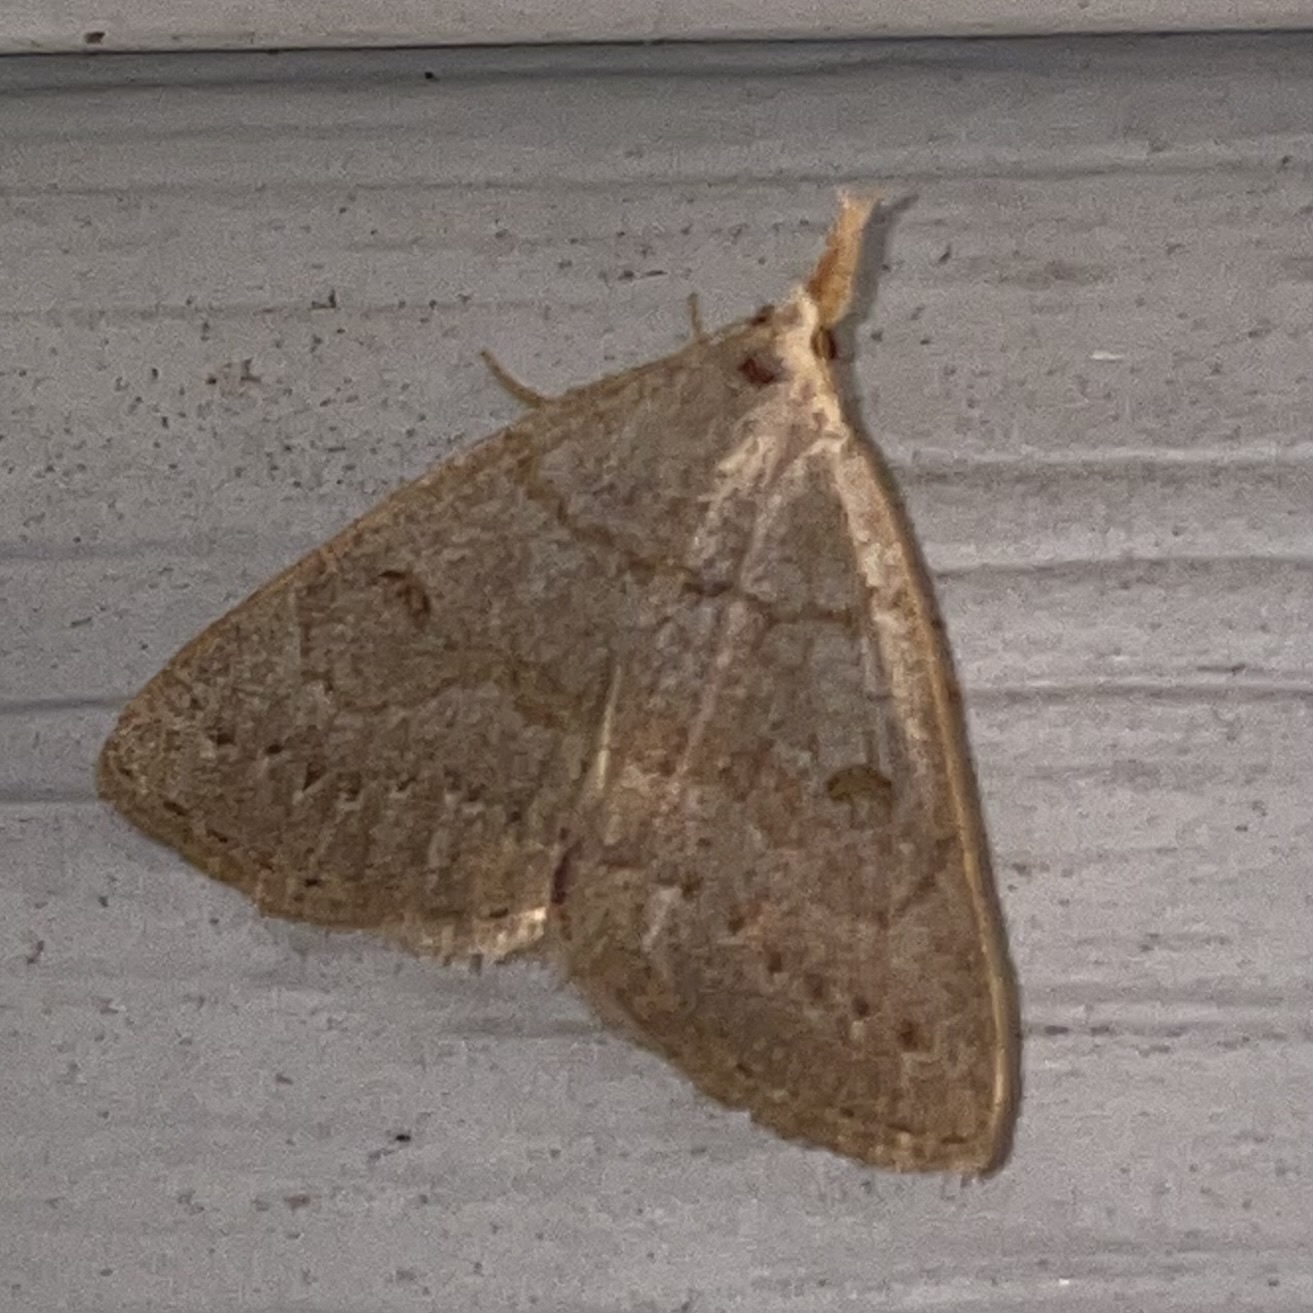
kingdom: Animalia
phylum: Arthropoda
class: Insecta
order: Lepidoptera
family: Erebidae
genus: Macrochilo
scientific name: Macrochilo morbidalis
